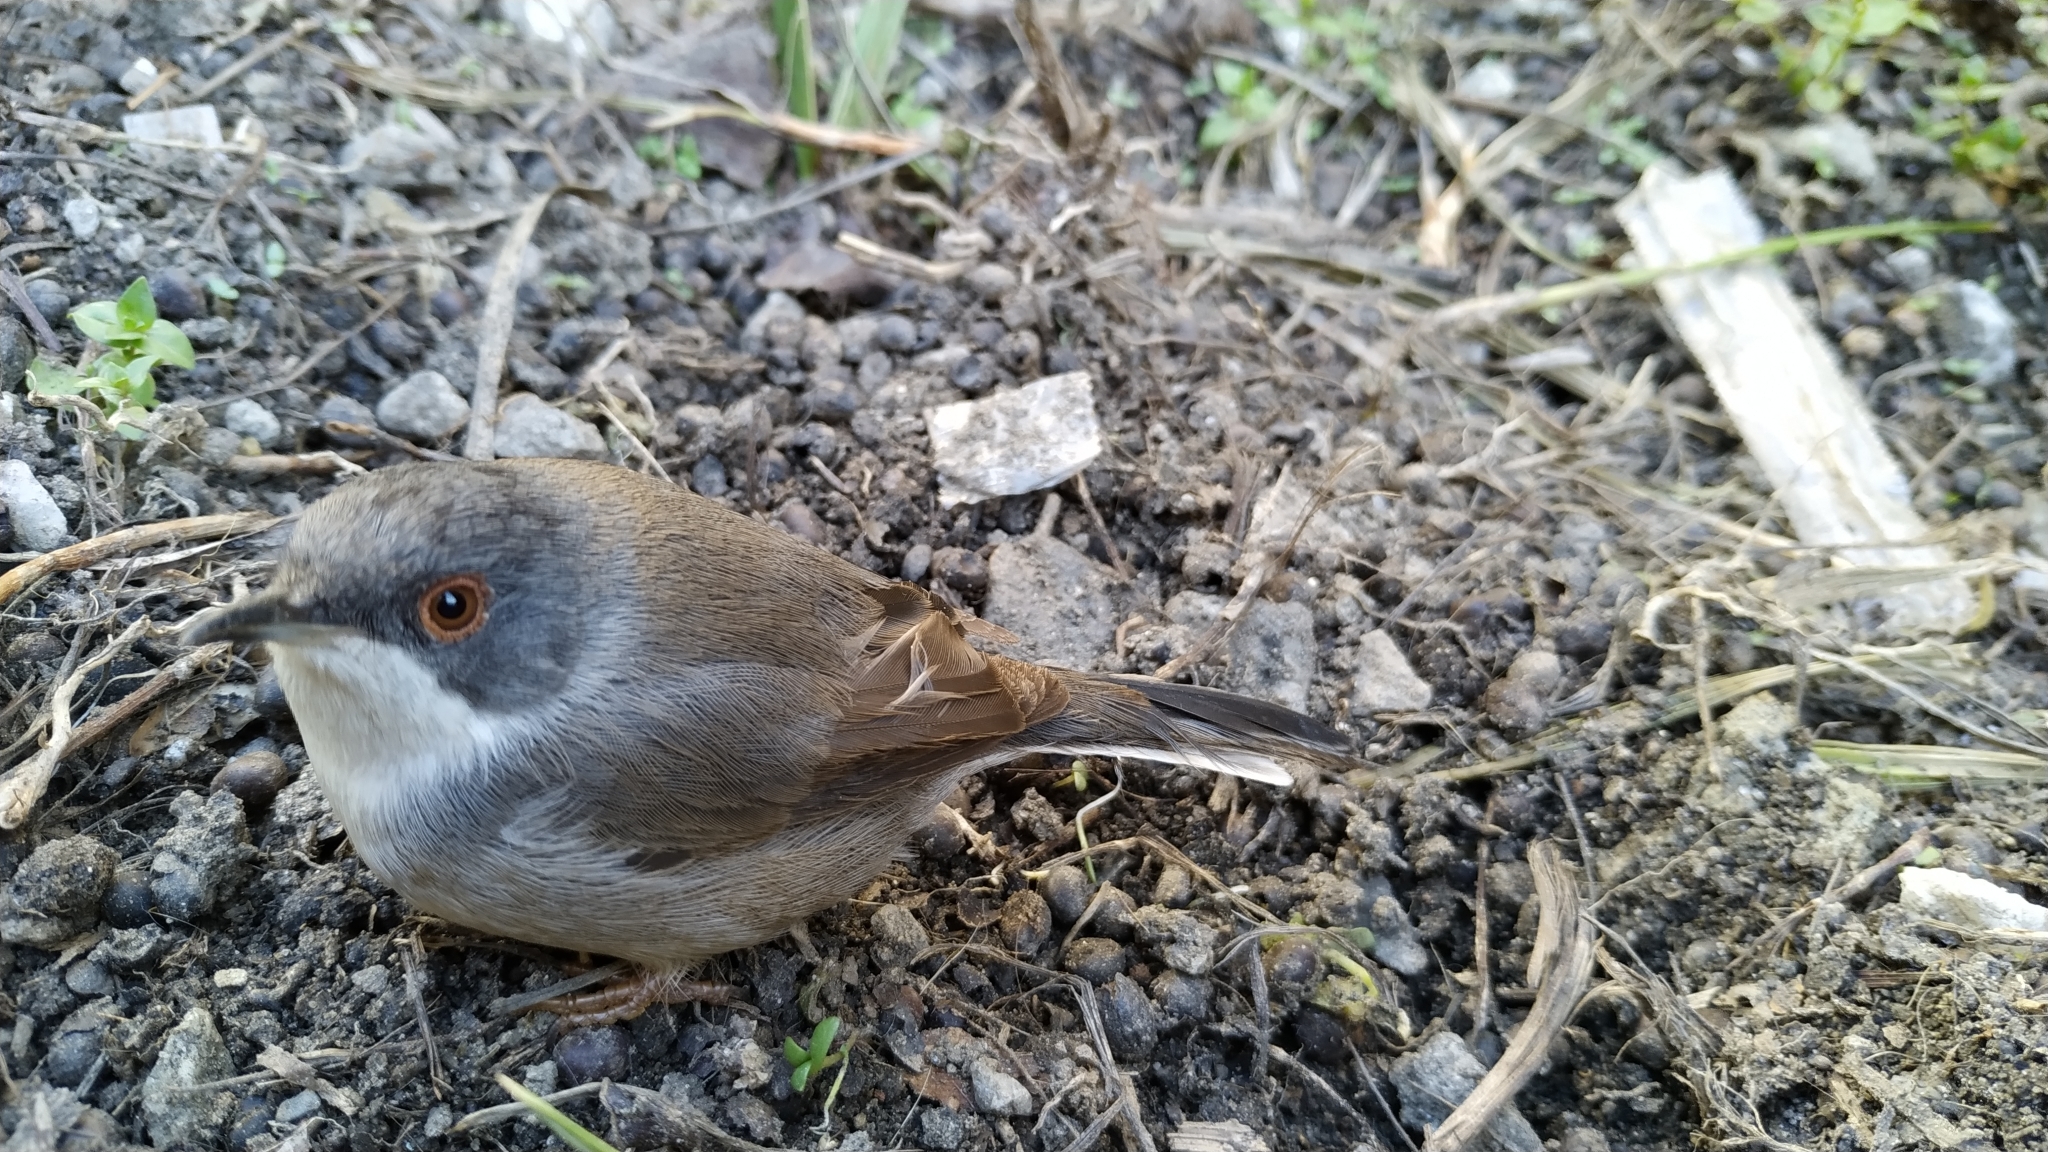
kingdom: Animalia
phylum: Chordata
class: Aves
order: Passeriformes
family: Sylviidae
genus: Curruca
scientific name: Curruca melanocephala
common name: Sardinian warbler
